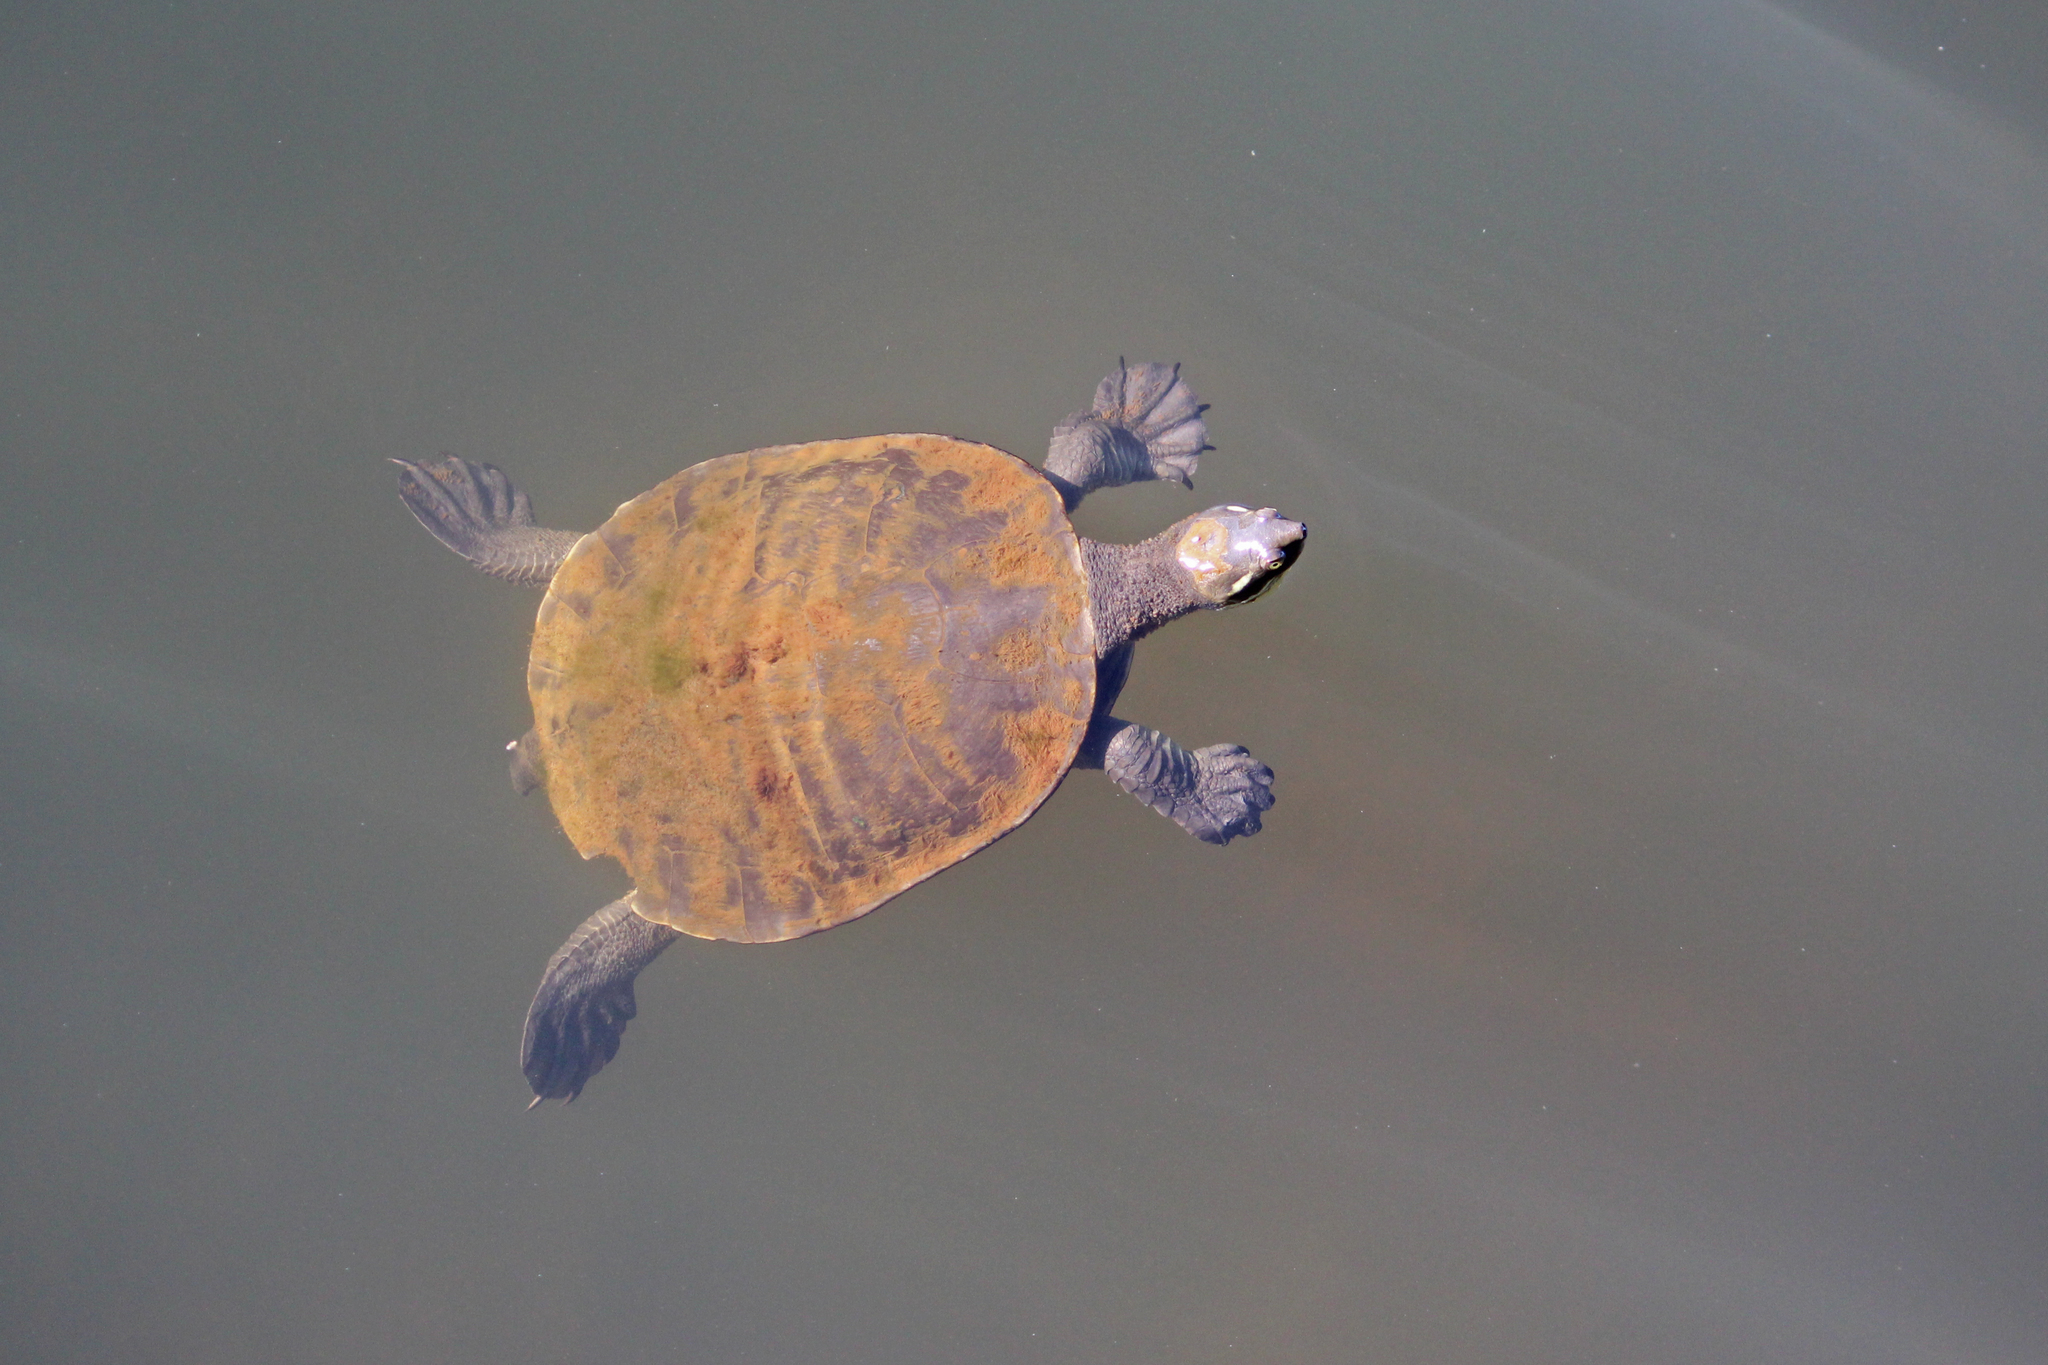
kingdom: Animalia
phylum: Chordata
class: Testudines
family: Chelidae
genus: Emydura
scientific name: Emydura macquarii
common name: Murray river turtle
